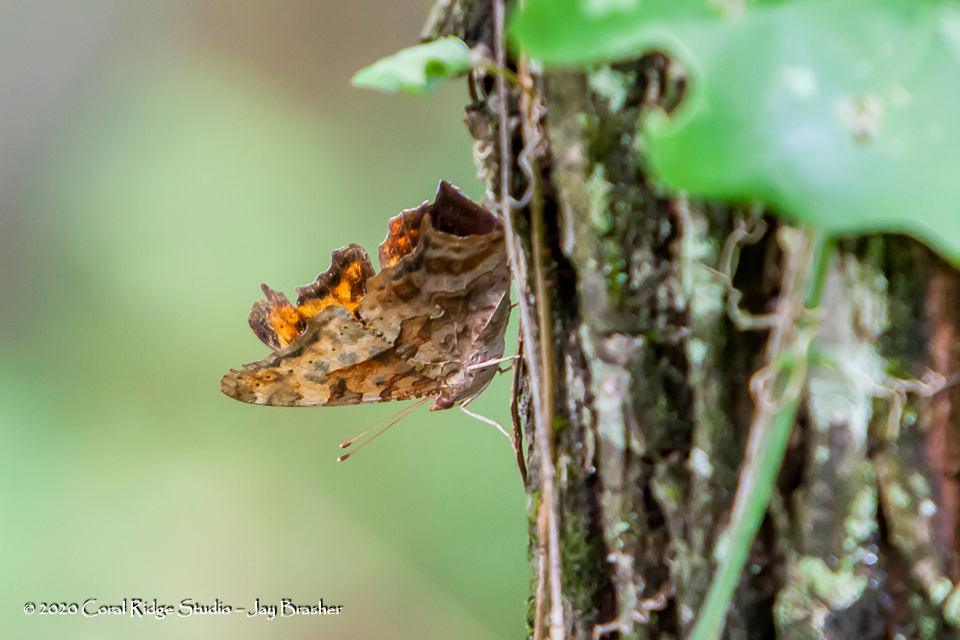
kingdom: Animalia
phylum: Arthropoda
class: Insecta
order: Lepidoptera
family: Nymphalidae
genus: Polygonia
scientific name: Polygonia interrogationis
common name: Question mark
